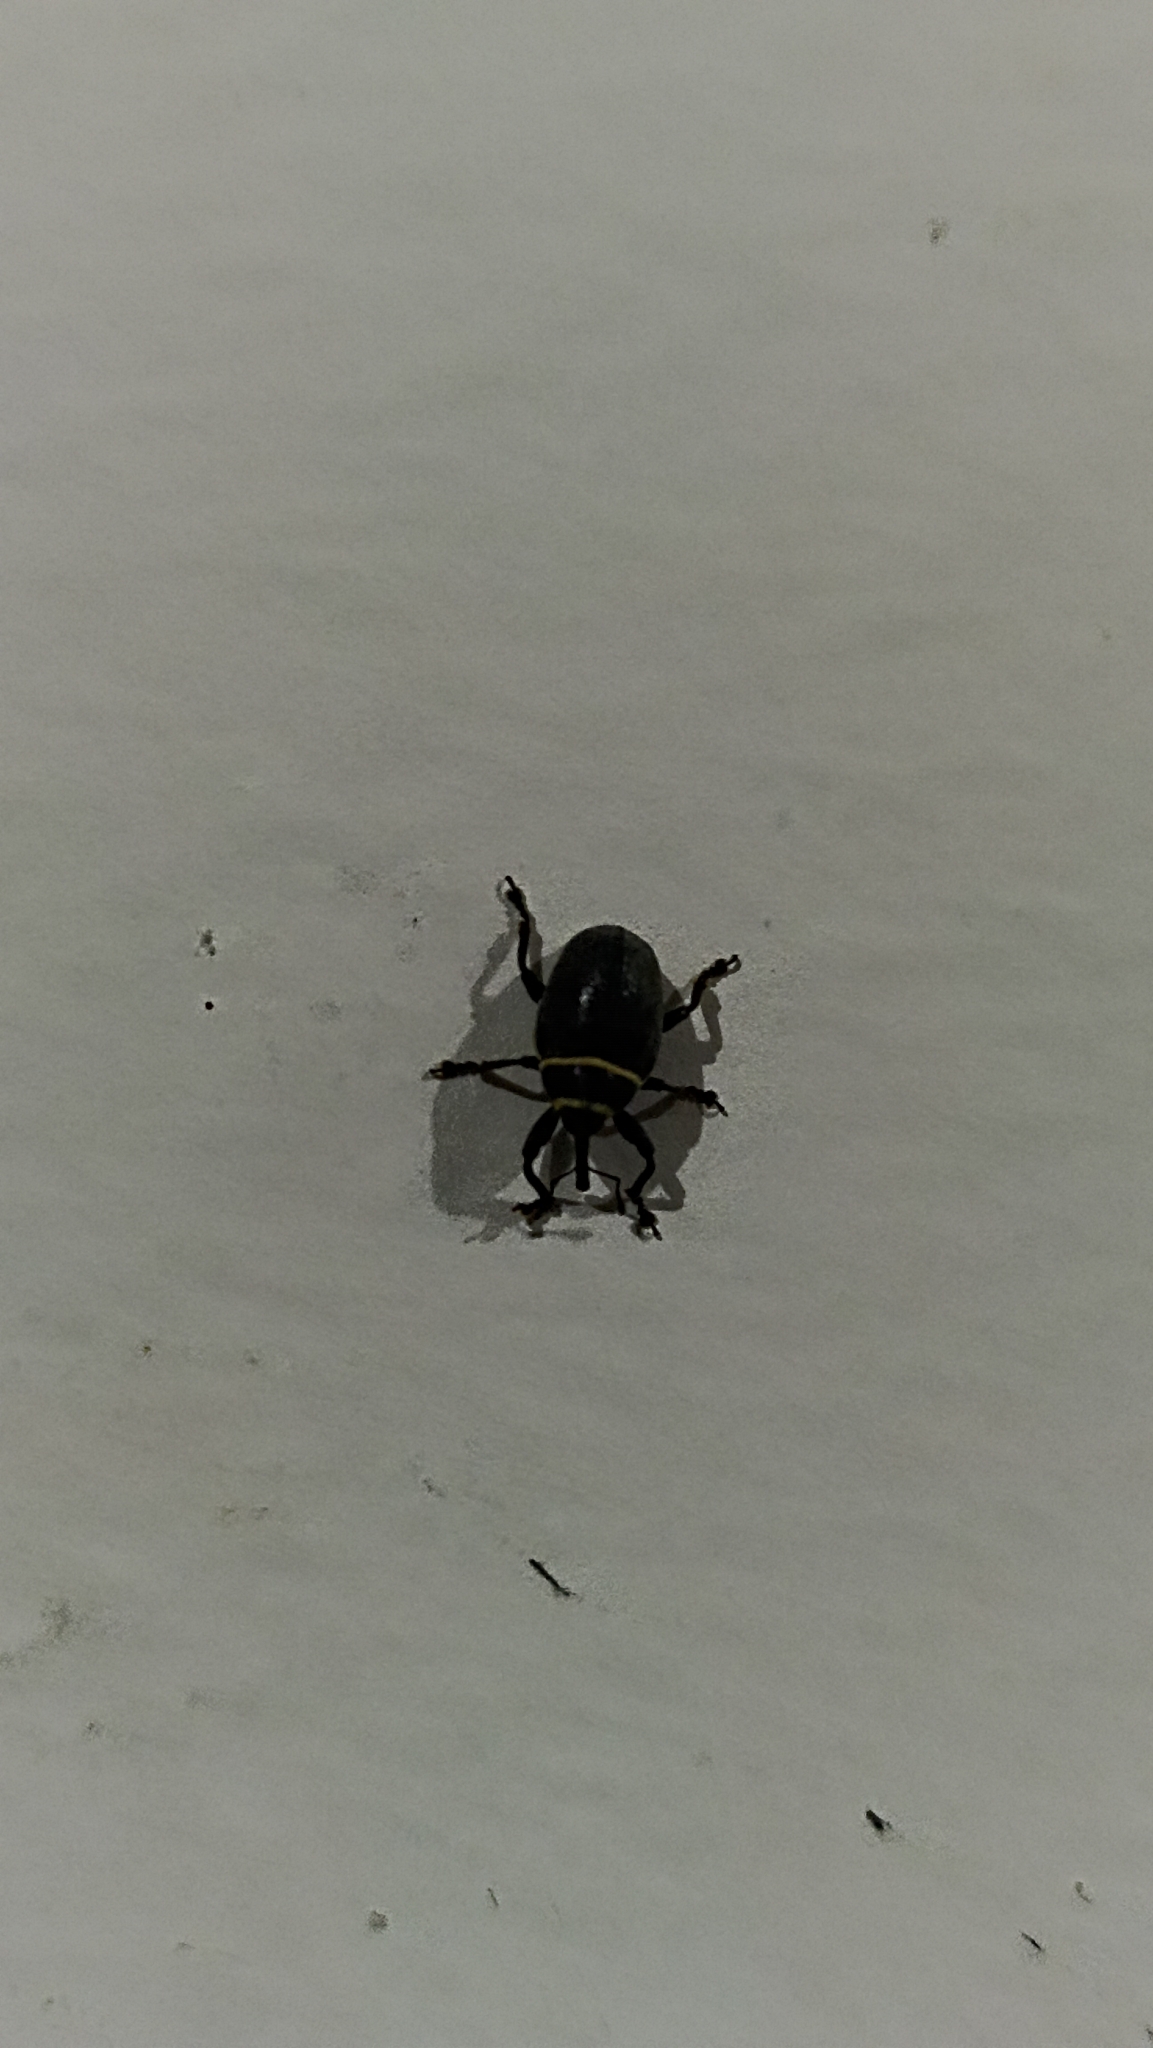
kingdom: Animalia
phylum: Arthropoda
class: Insecta
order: Coleoptera
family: Curculionidae
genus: Rhyssomatus
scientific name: Rhyssomatus marginatus
